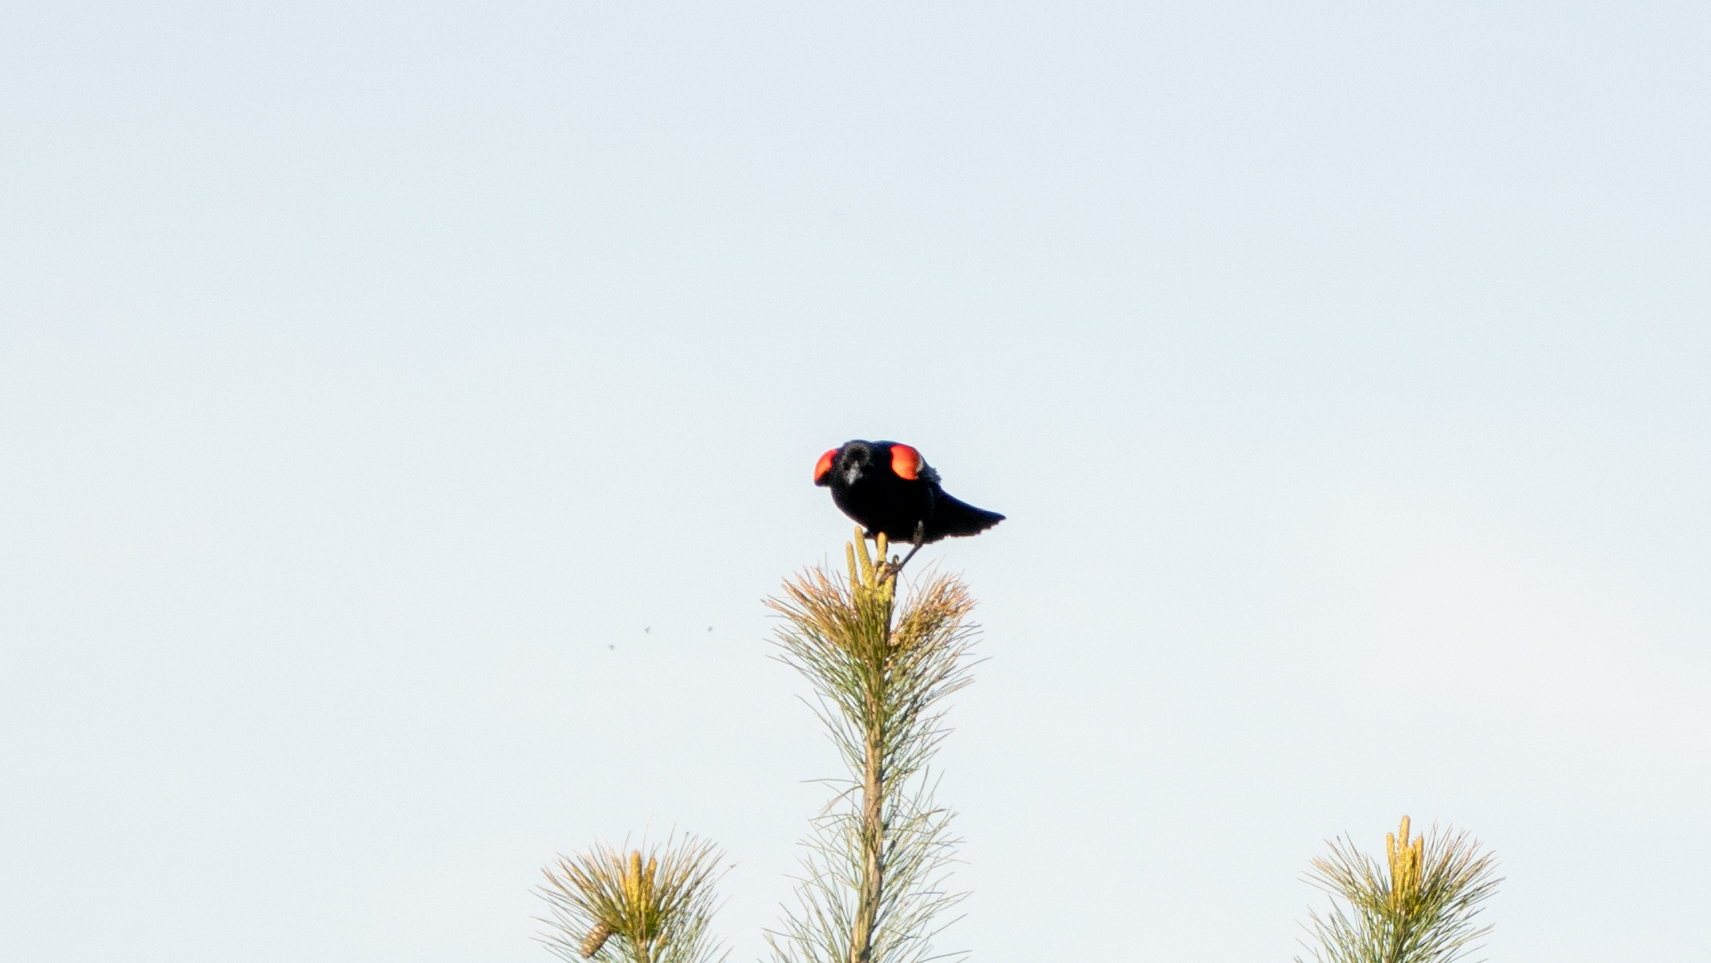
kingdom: Animalia
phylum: Chordata
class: Aves
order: Passeriformes
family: Icteridae
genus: Agelaius
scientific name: Agelaius phoeniceus
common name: Red-winged blackbird
